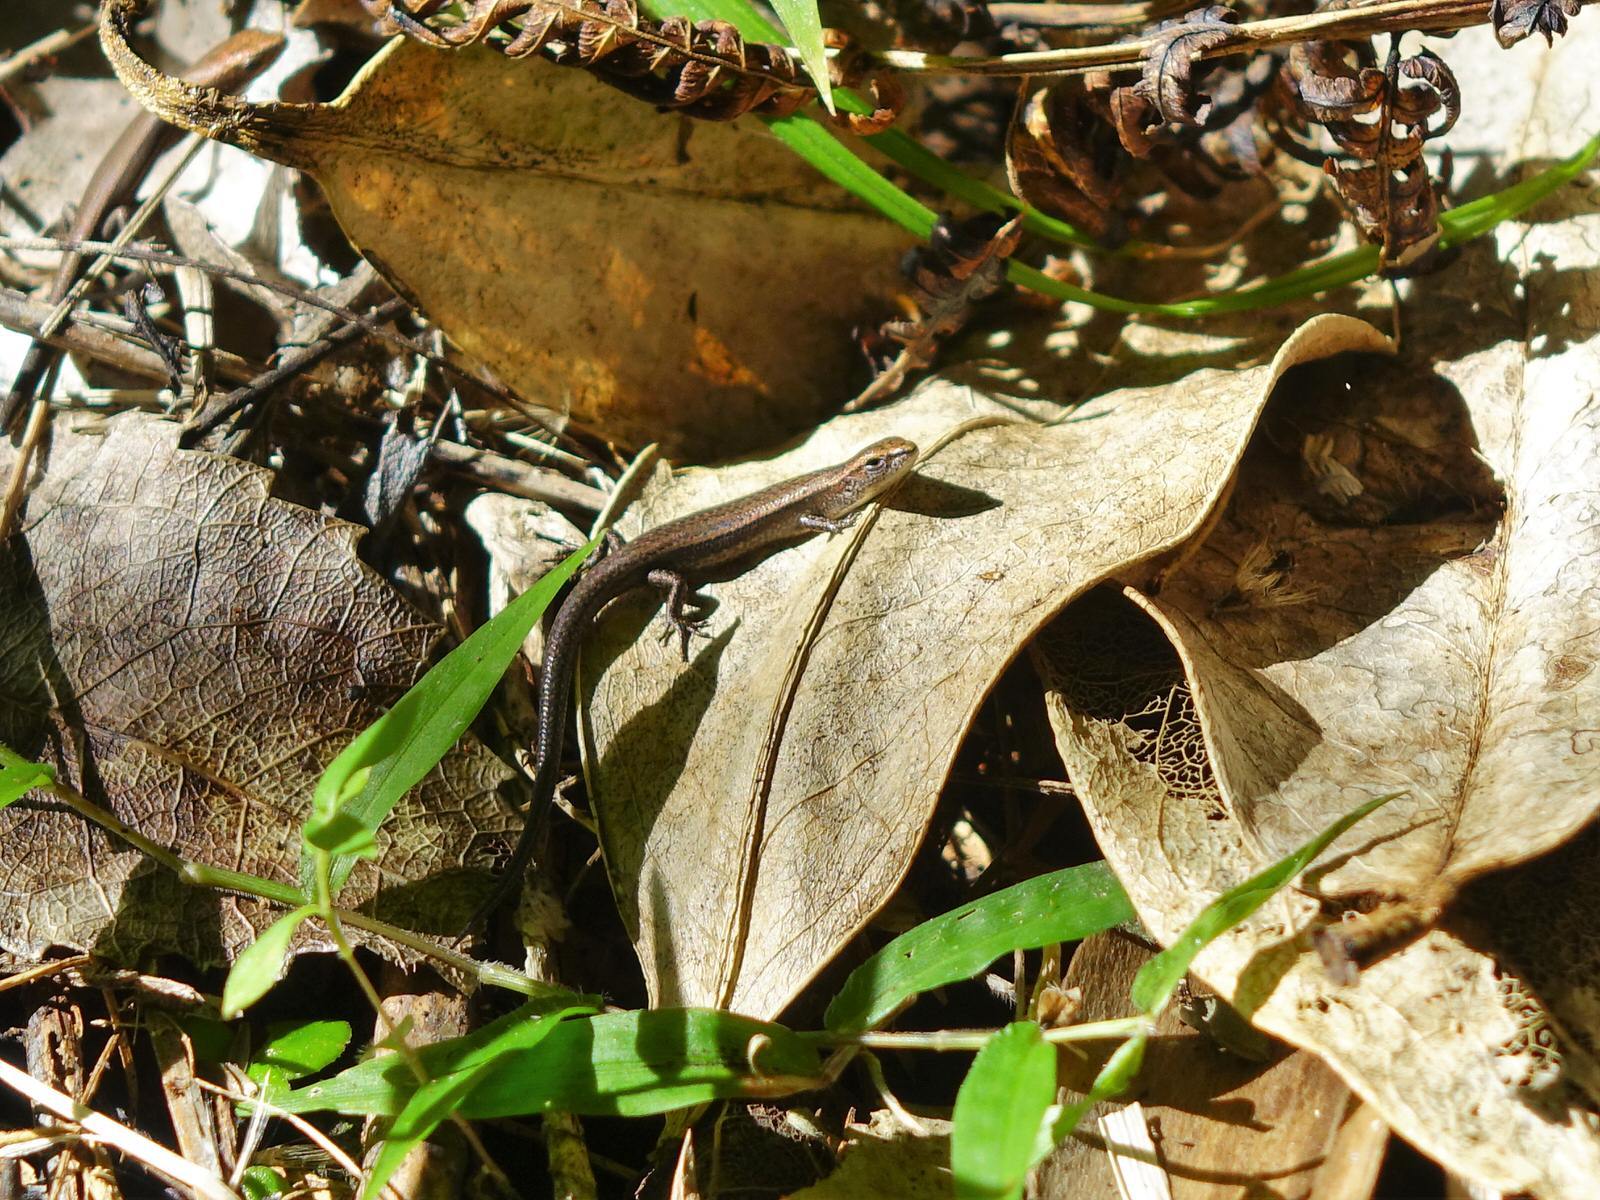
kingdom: Animalia
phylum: Chordata
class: Squamata
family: Scincidae
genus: Lampropholis
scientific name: Lampropholis delicata
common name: Plague skink
